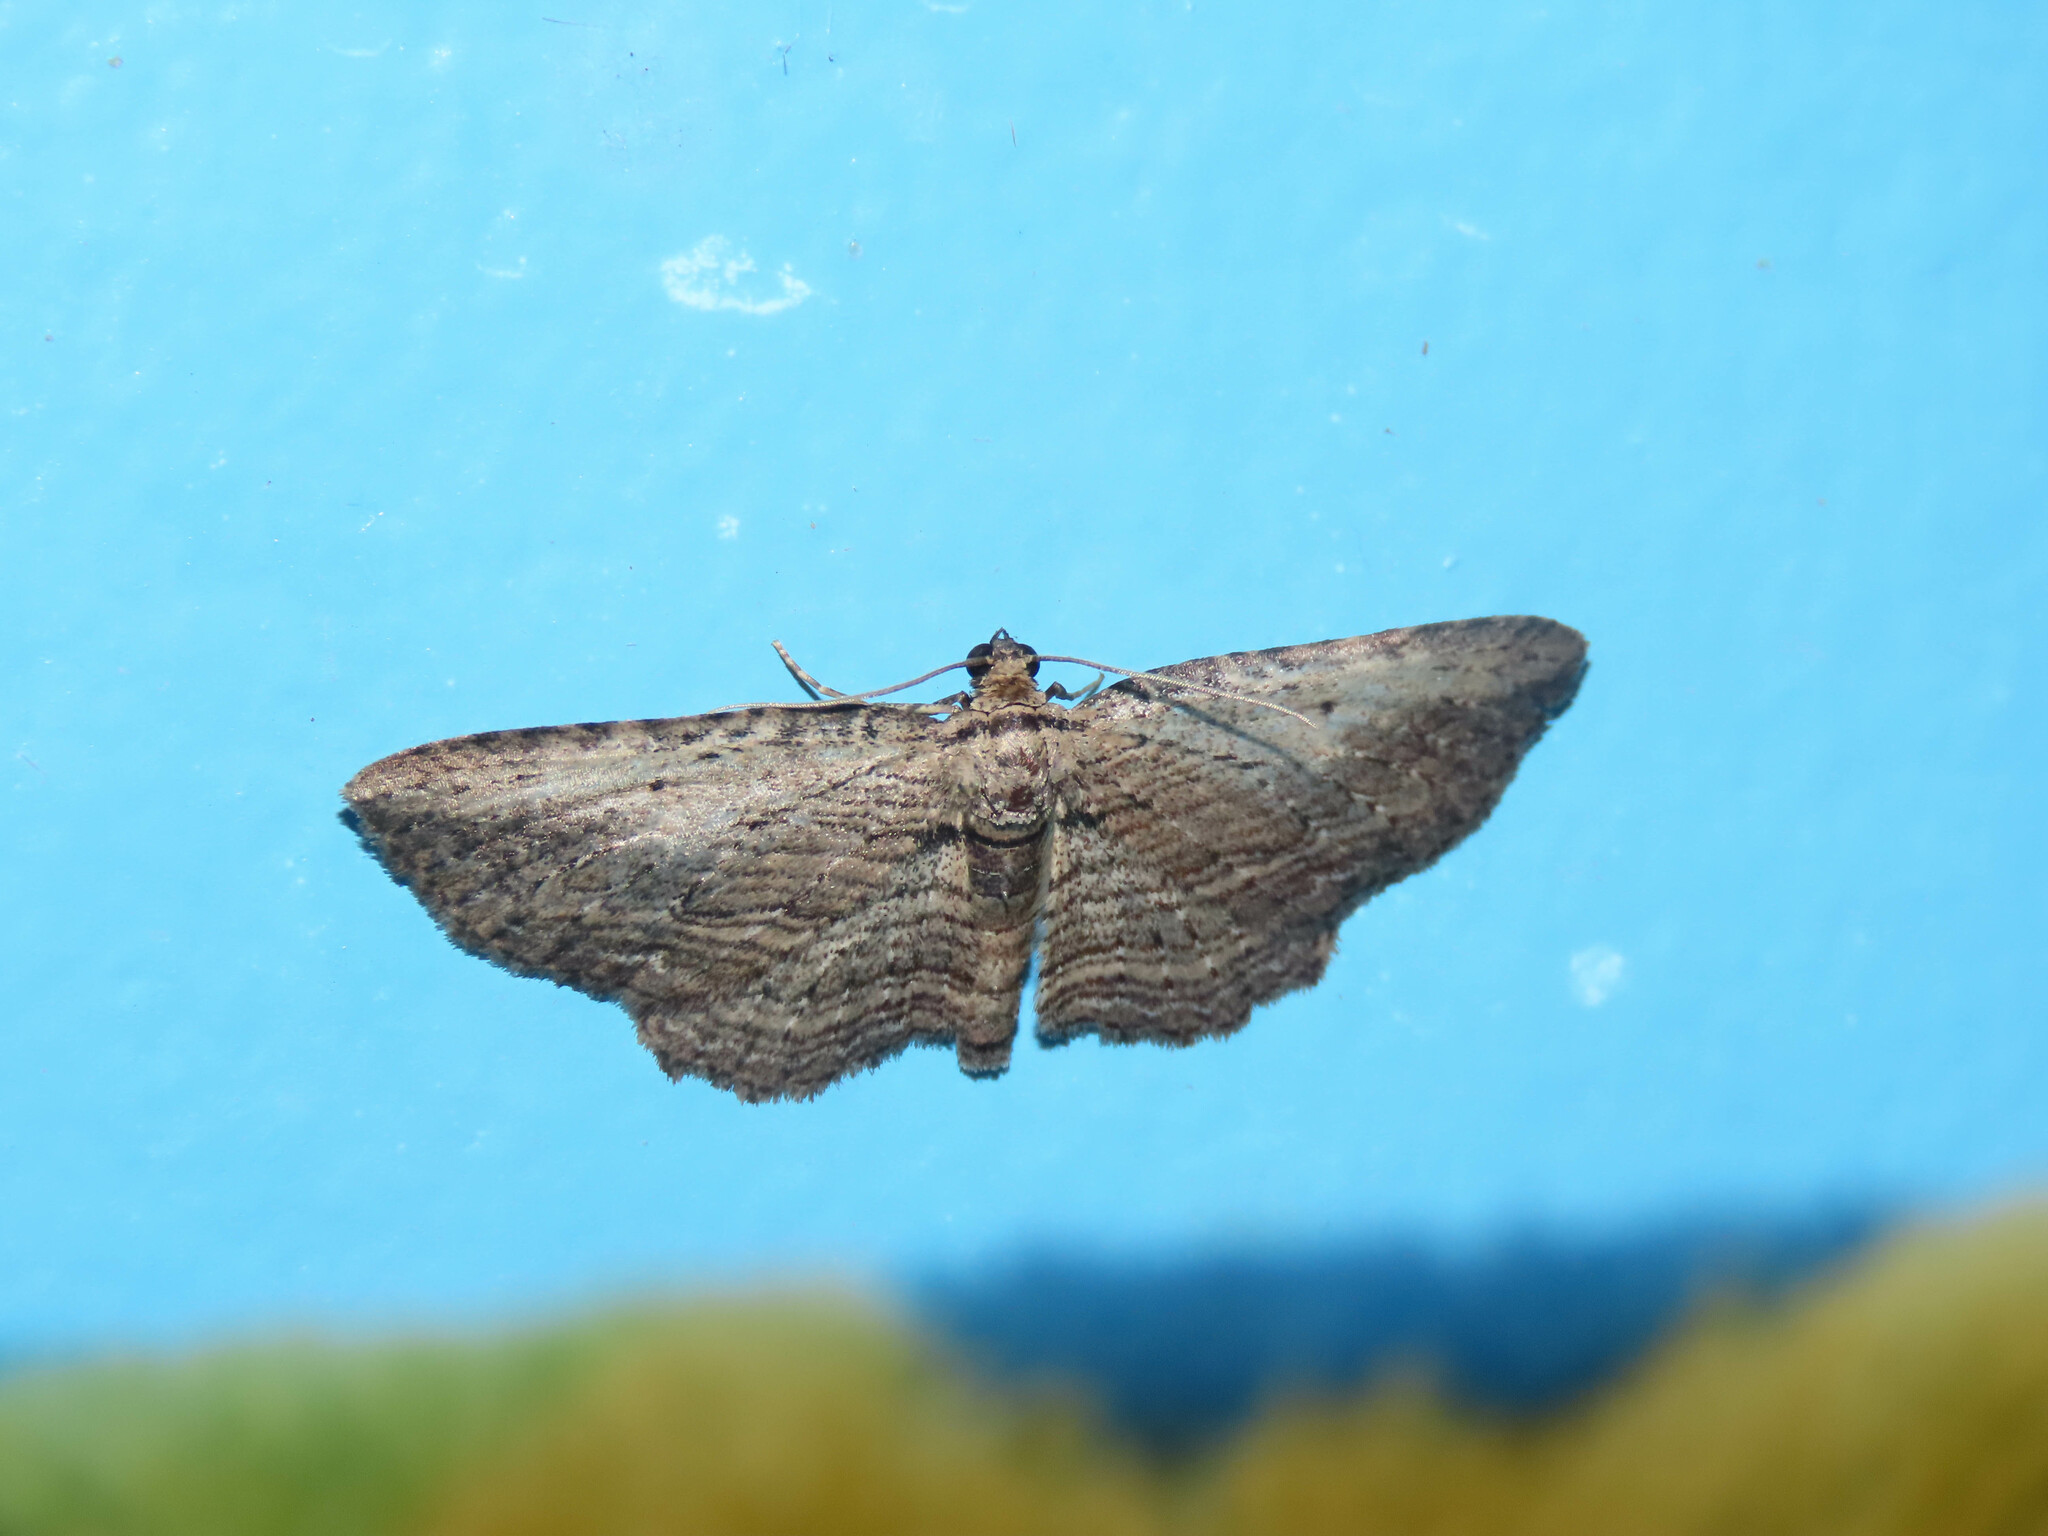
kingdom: Animalia
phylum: Arthropoda
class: Insecta
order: Lepidoptera
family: Geometridae
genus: Horisme
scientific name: Horisme intestinata
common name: Brown bark carpet
